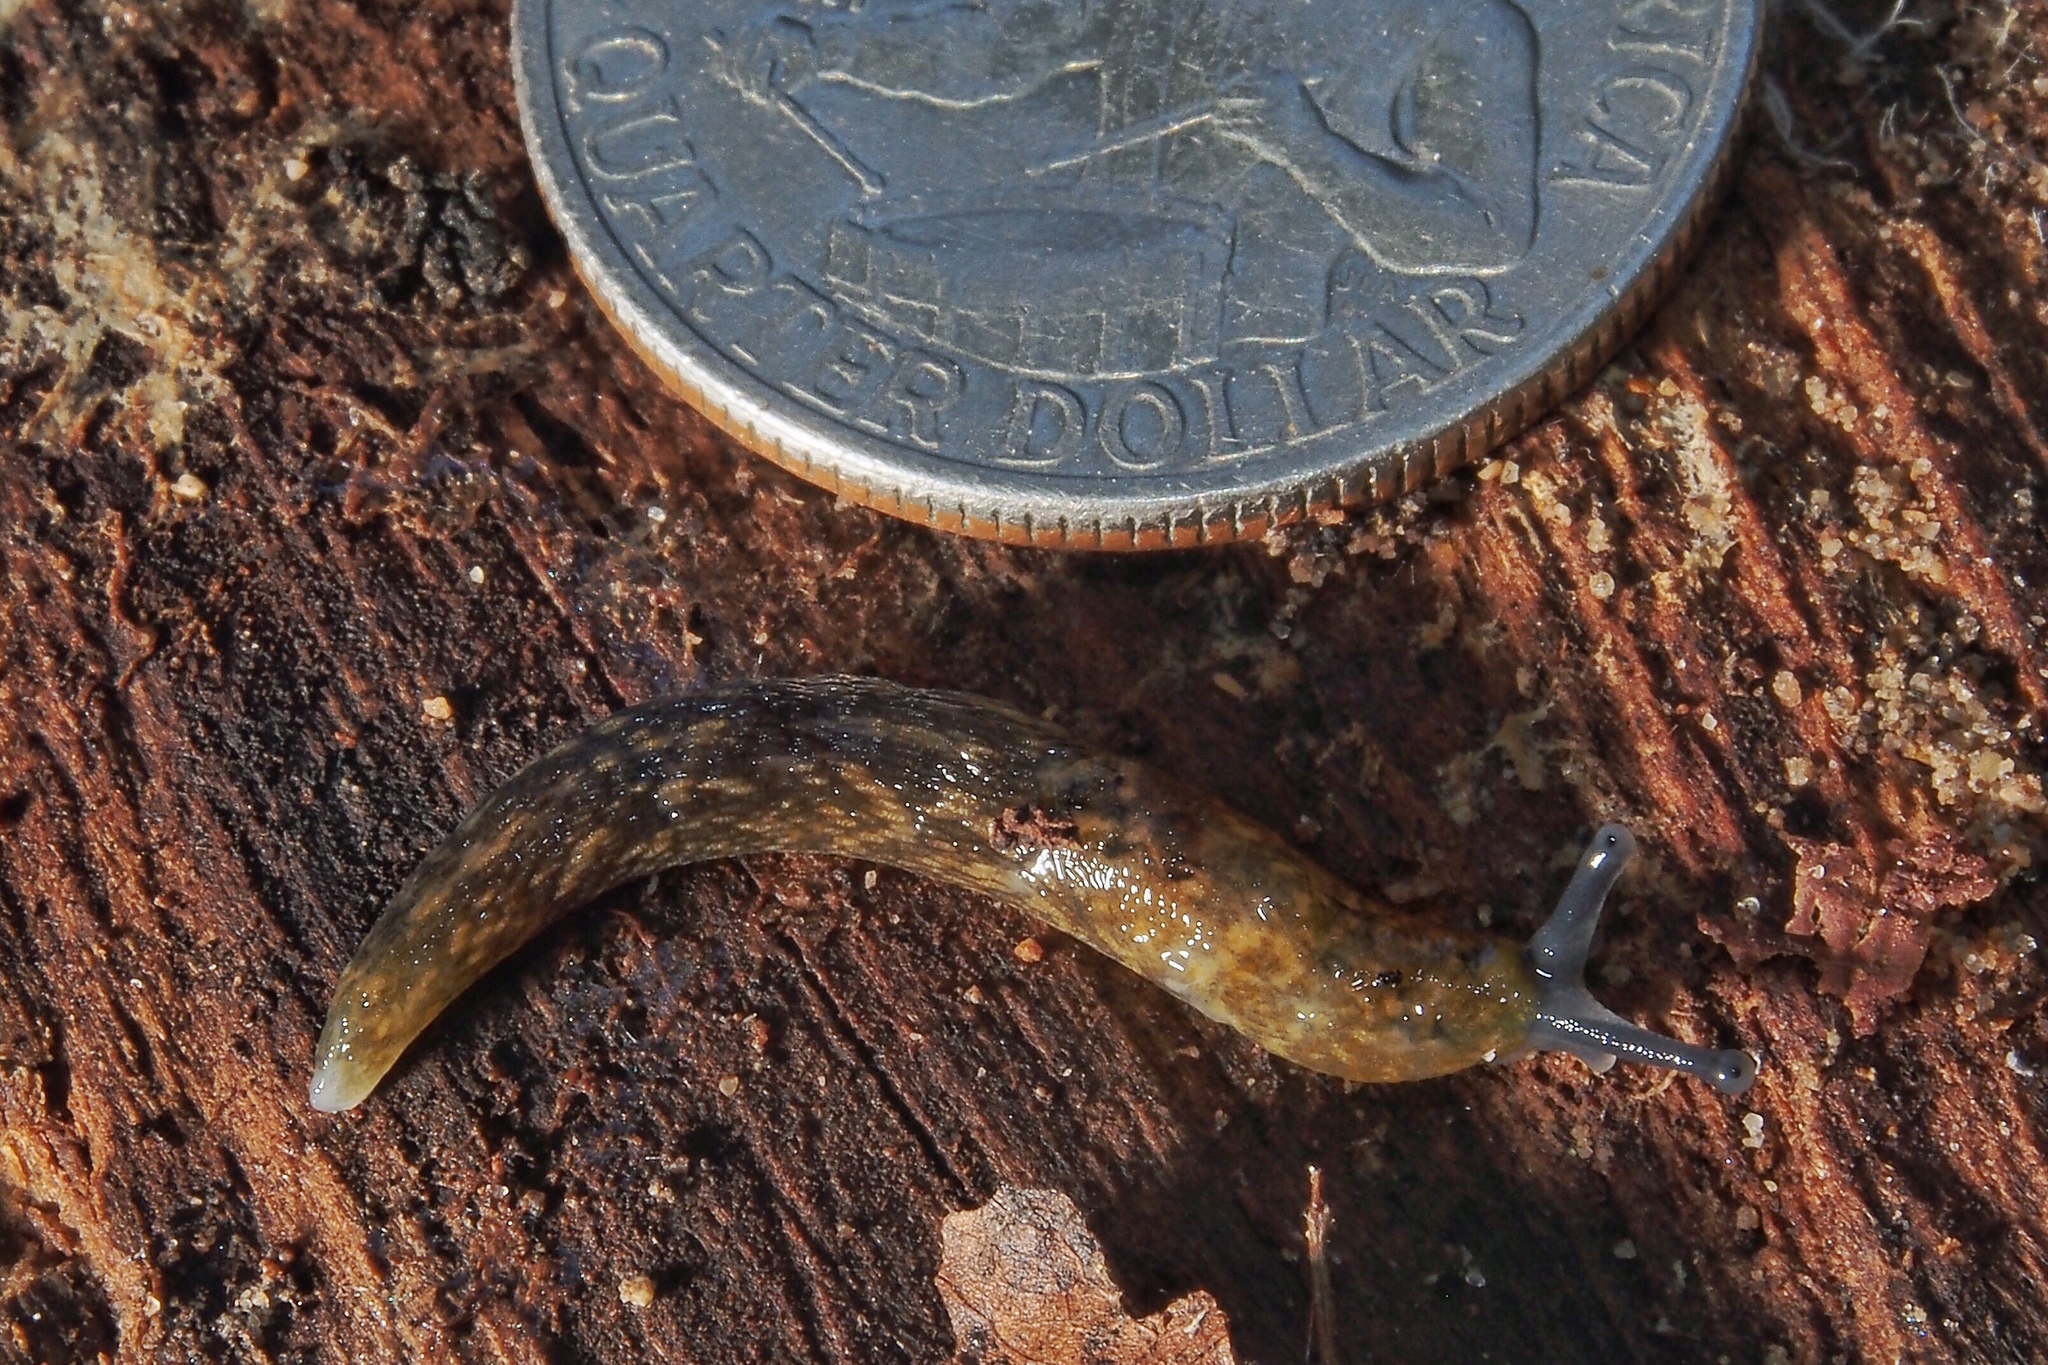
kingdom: Animalia
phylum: Mollusca
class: Gastropoda
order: Stylommatophora
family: Limacidae
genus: Limacus
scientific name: Limacus flavus
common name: Yellow gardenslug
